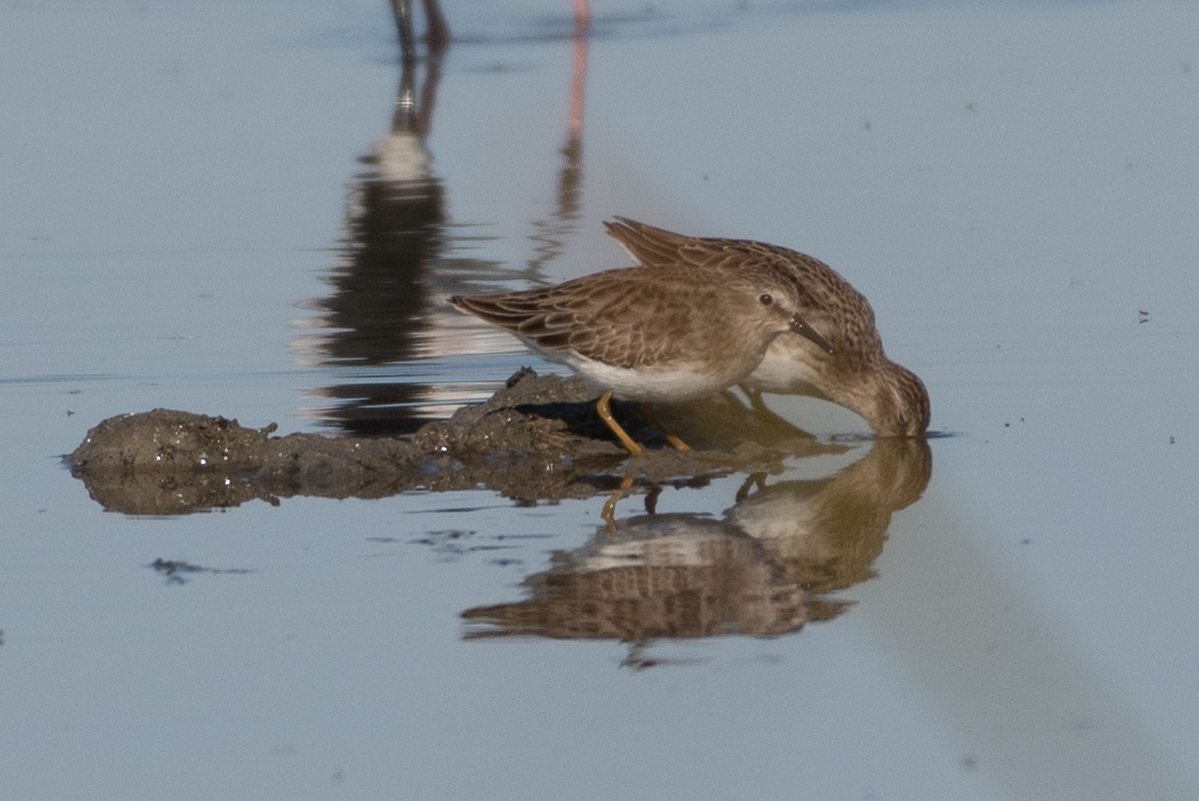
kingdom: Animalia
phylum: Chordata
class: Aves
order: Charadriiformes
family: Scolopacidae
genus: Calidris
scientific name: Calidris minutilla
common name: Least sandpiper
